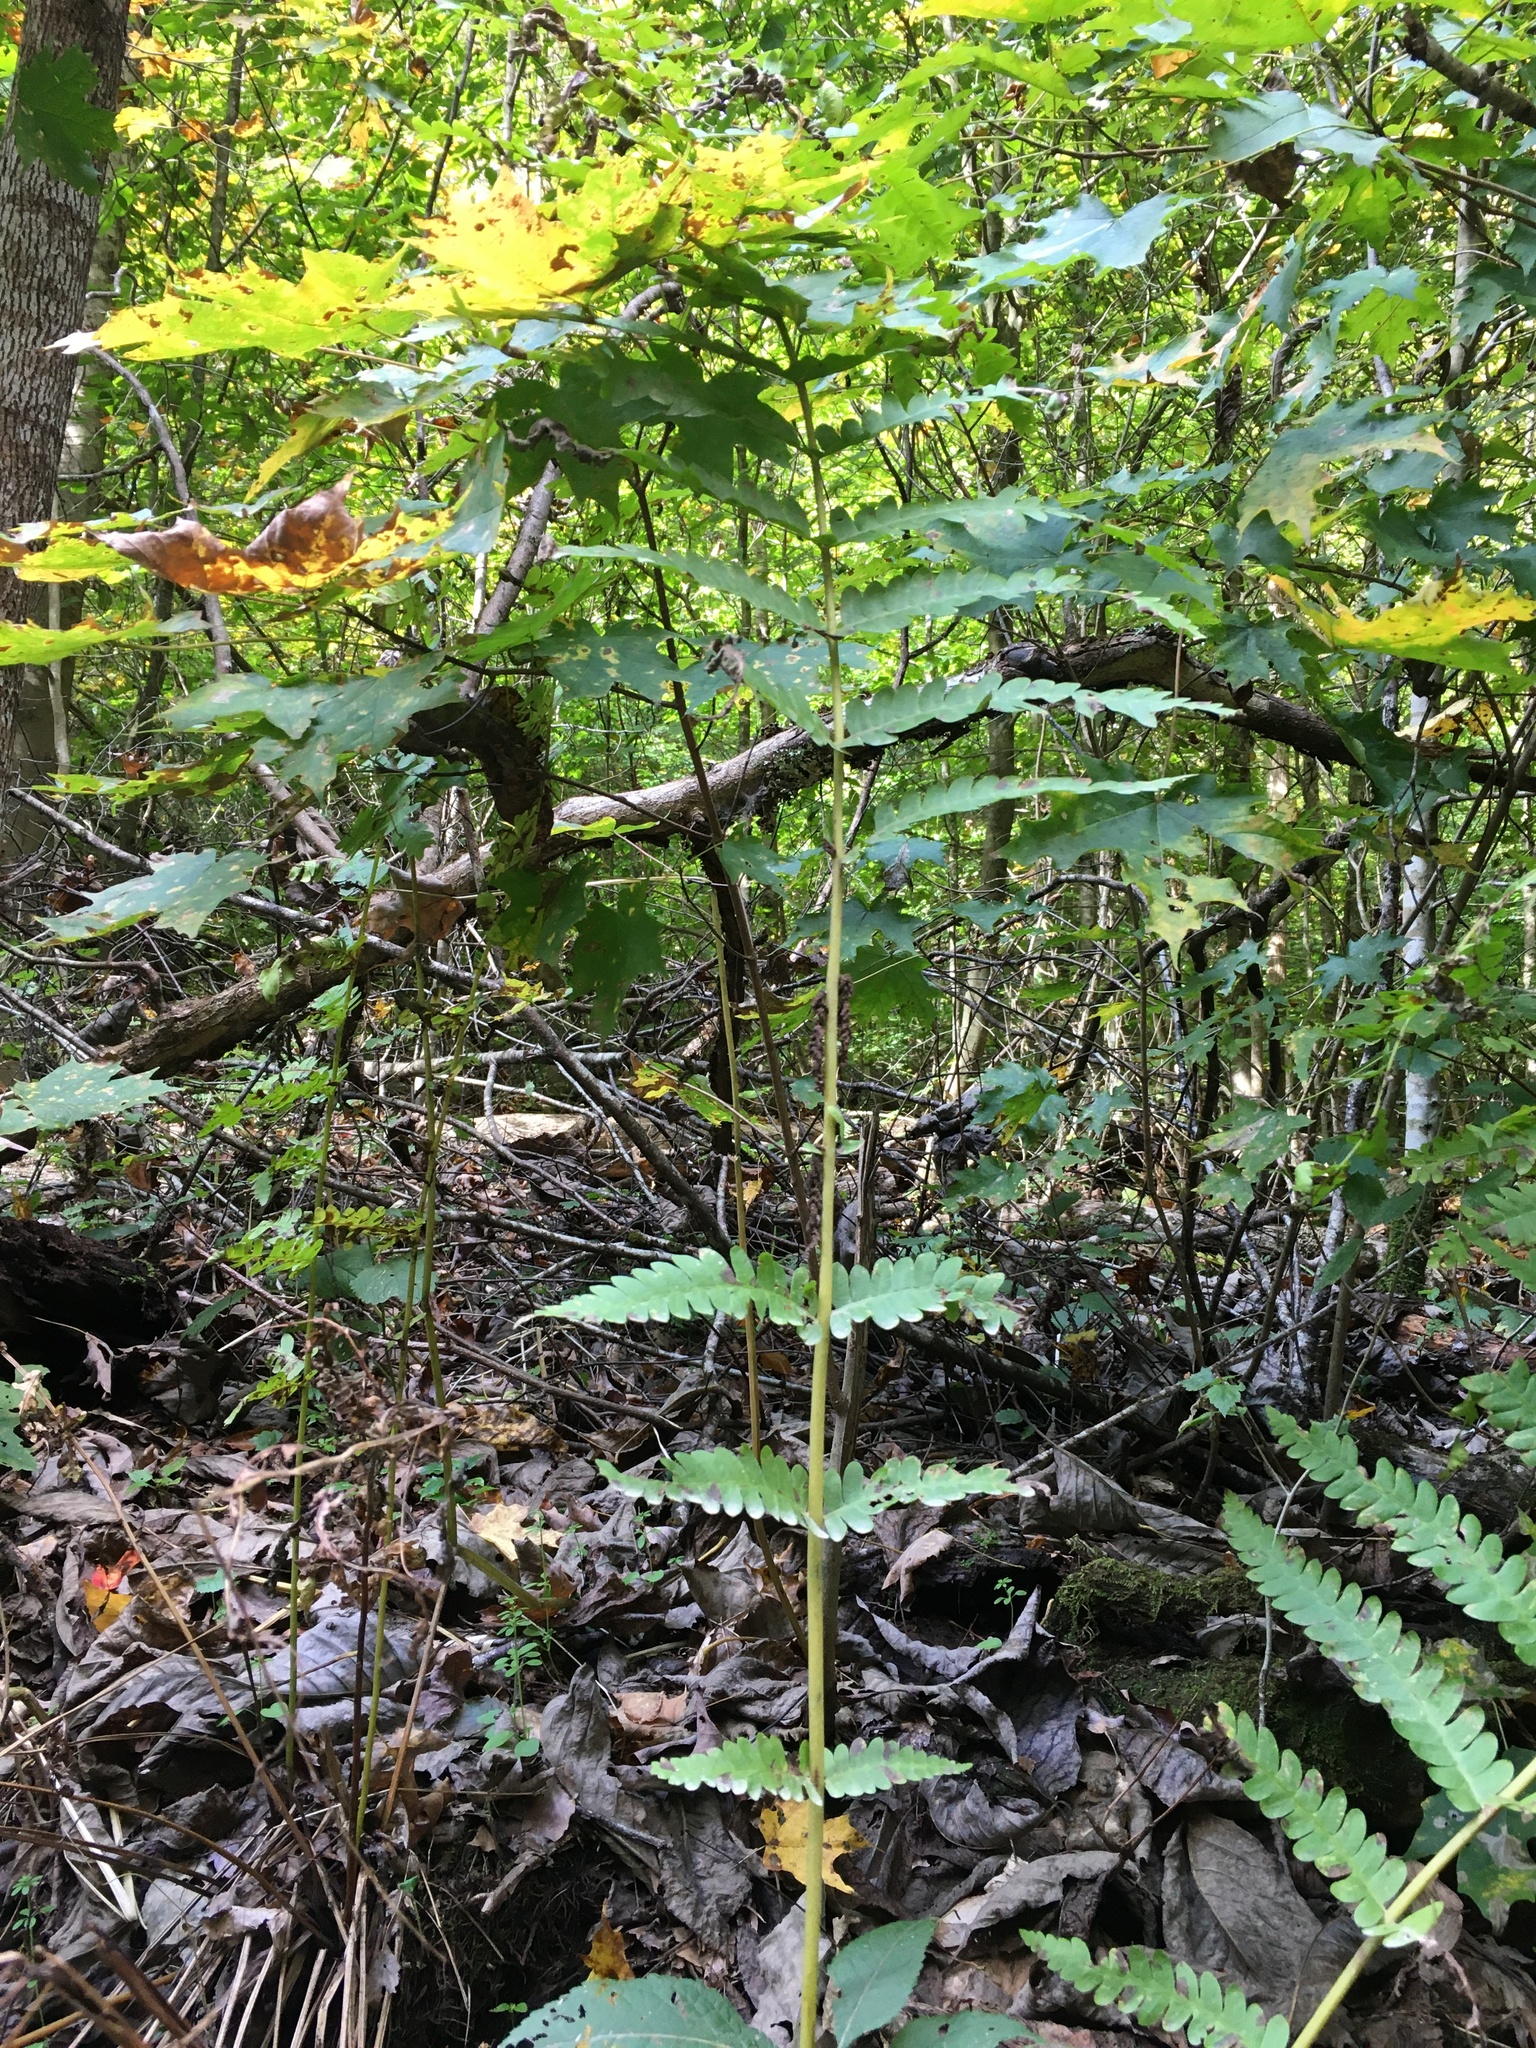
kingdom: Plantae
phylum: Tracheophyta
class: Polypodiopsida
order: Osmundales
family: Osmundaceae
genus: Claytosmunda
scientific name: Claytosmunda claytoniana
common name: Clayton's fern
